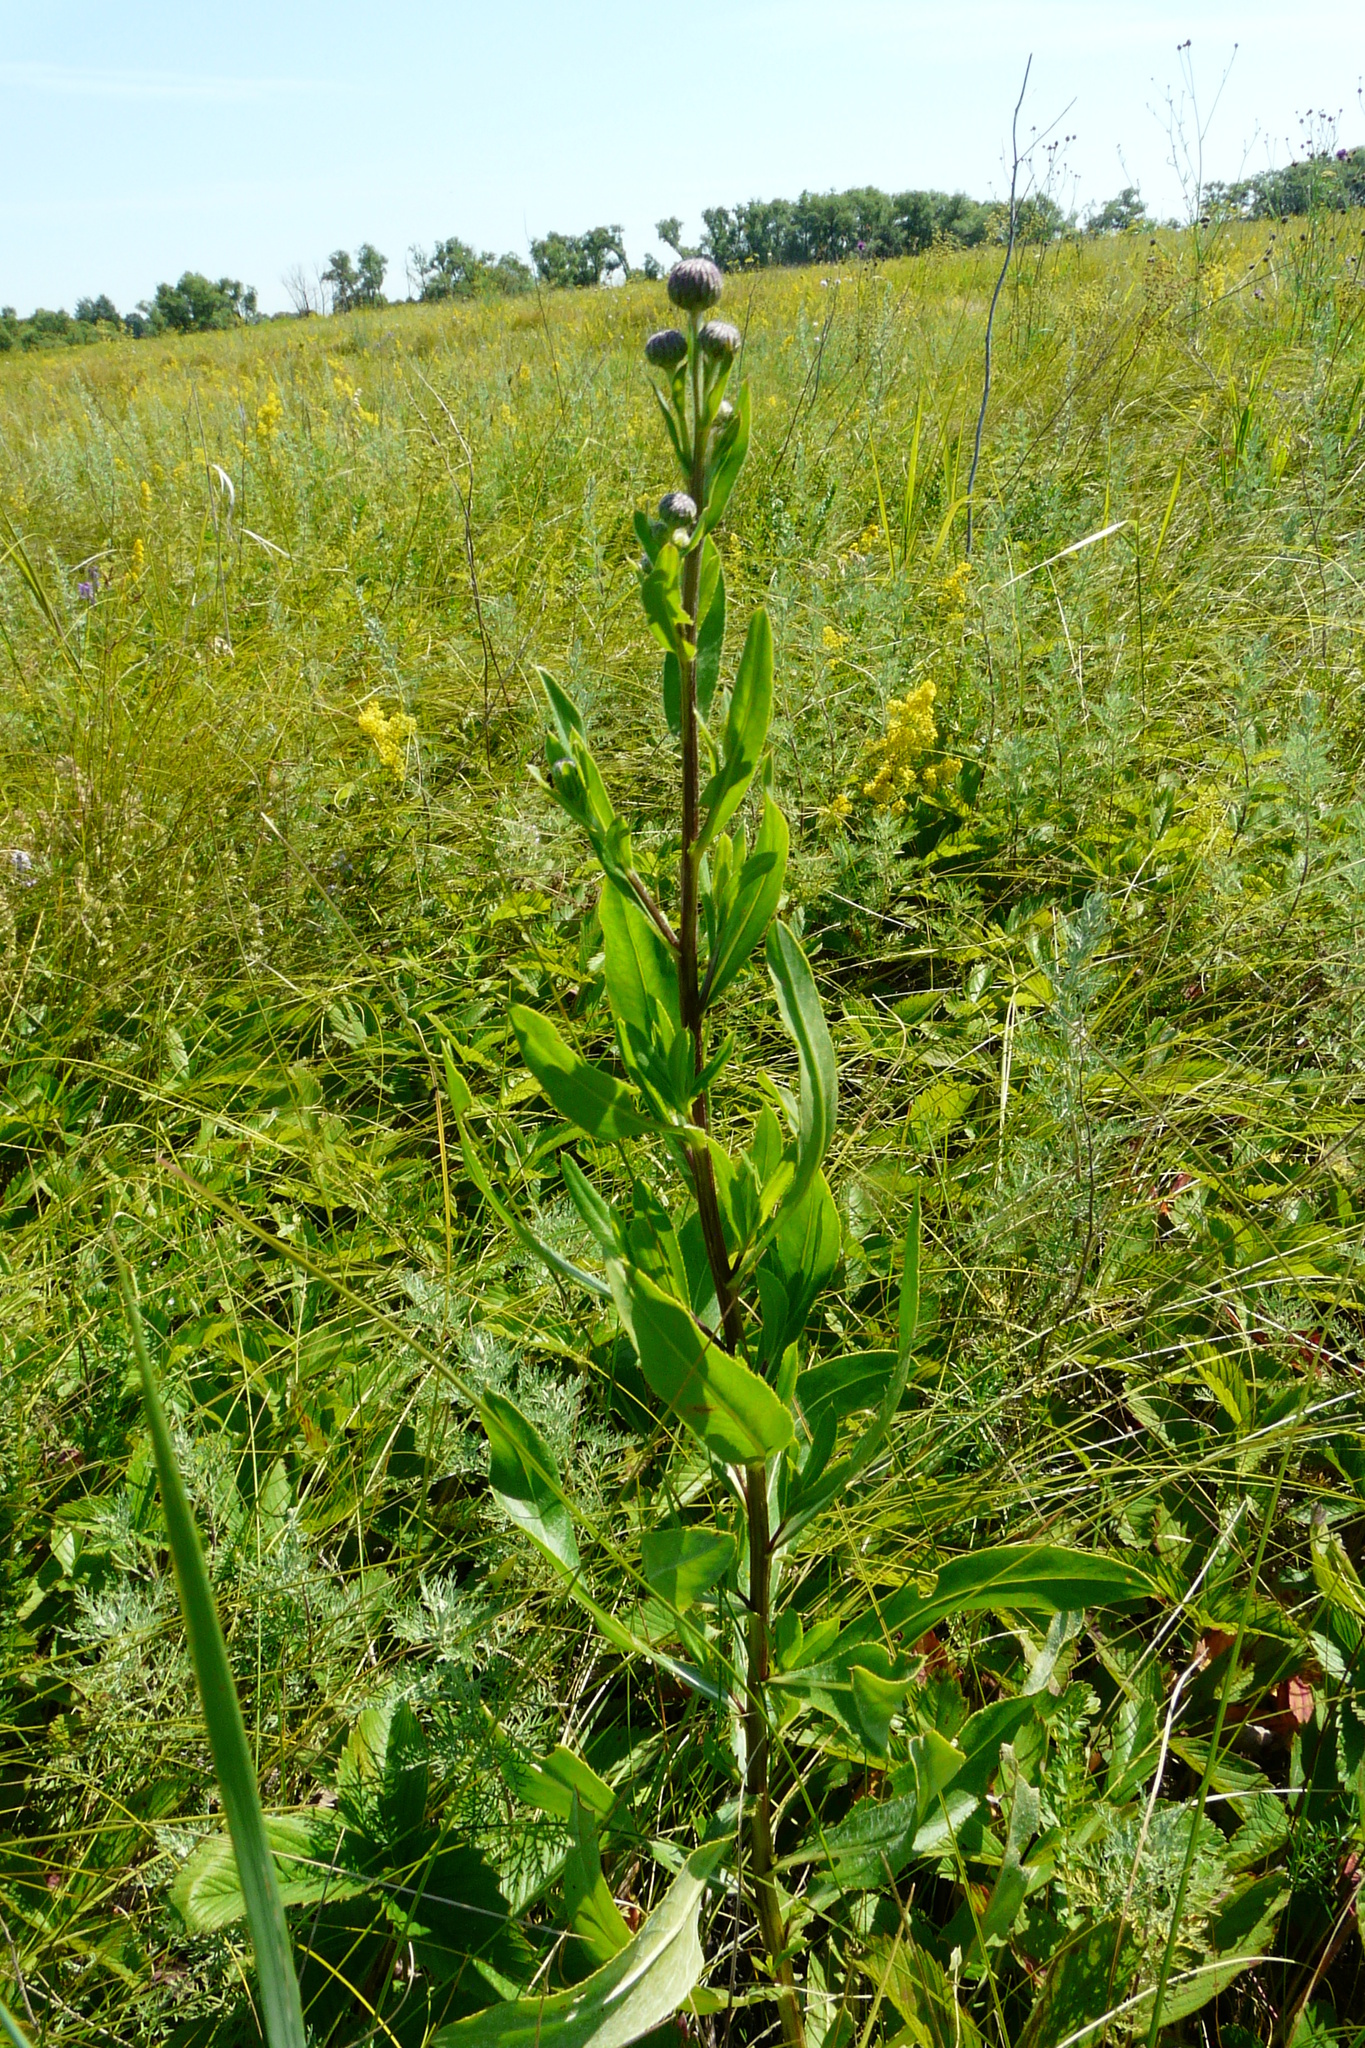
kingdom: Plantae
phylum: Tracheophyta
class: Magnoliopsida
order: Asterales
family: Asteraceae
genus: Cirsium
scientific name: Cirsium arvense
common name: Creeping thistle
